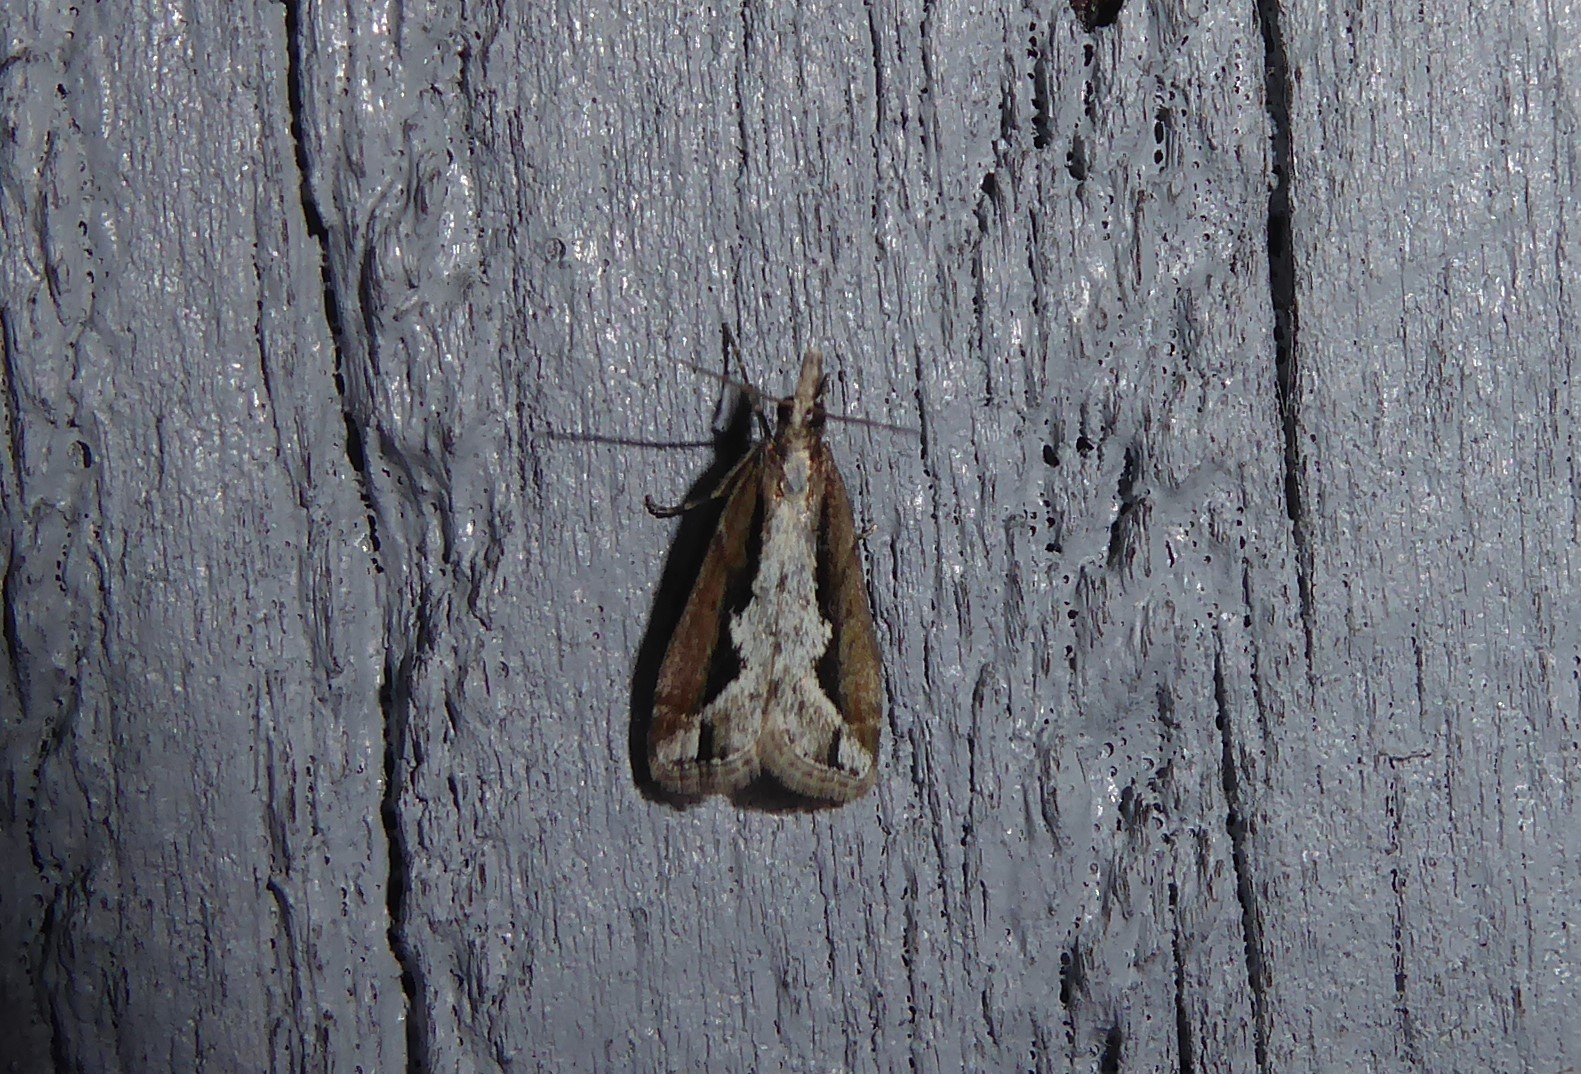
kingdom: Animalia
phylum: Arthropoda
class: Insecta
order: Lepidoptera
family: Crambidae
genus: Eudonia
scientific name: Eudonia steropaea
